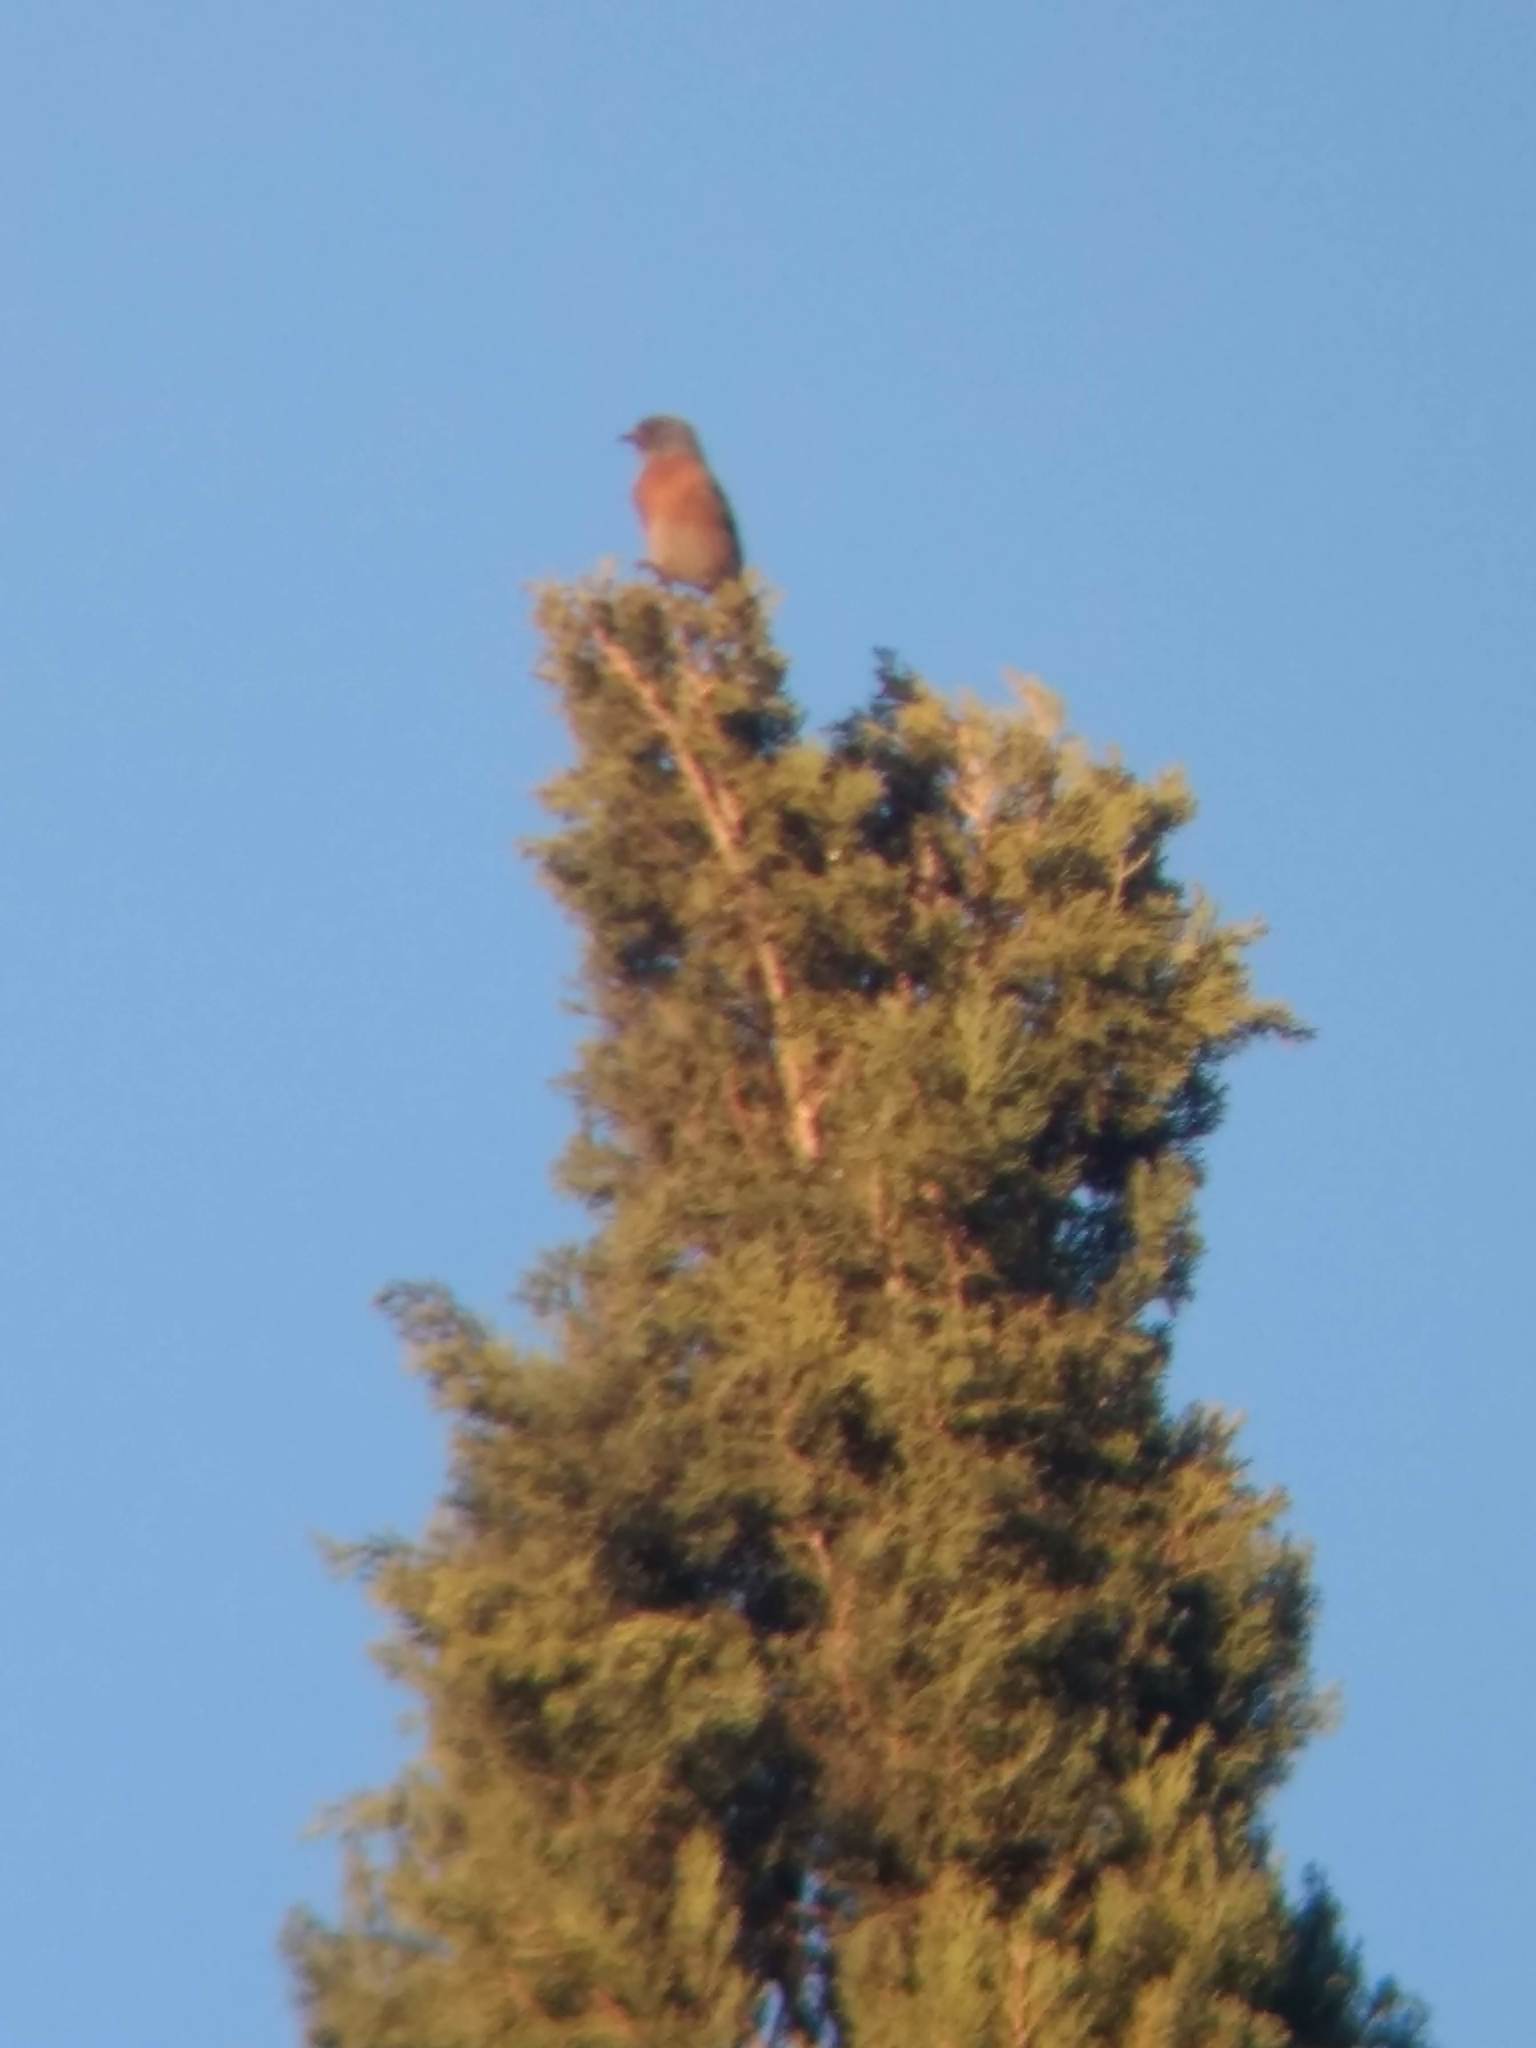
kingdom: Animalia
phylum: Chordata
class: Aves
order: Passeriformes
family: Turdidae
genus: Sialia
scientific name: Sialia mexicana
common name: Western bluebird
